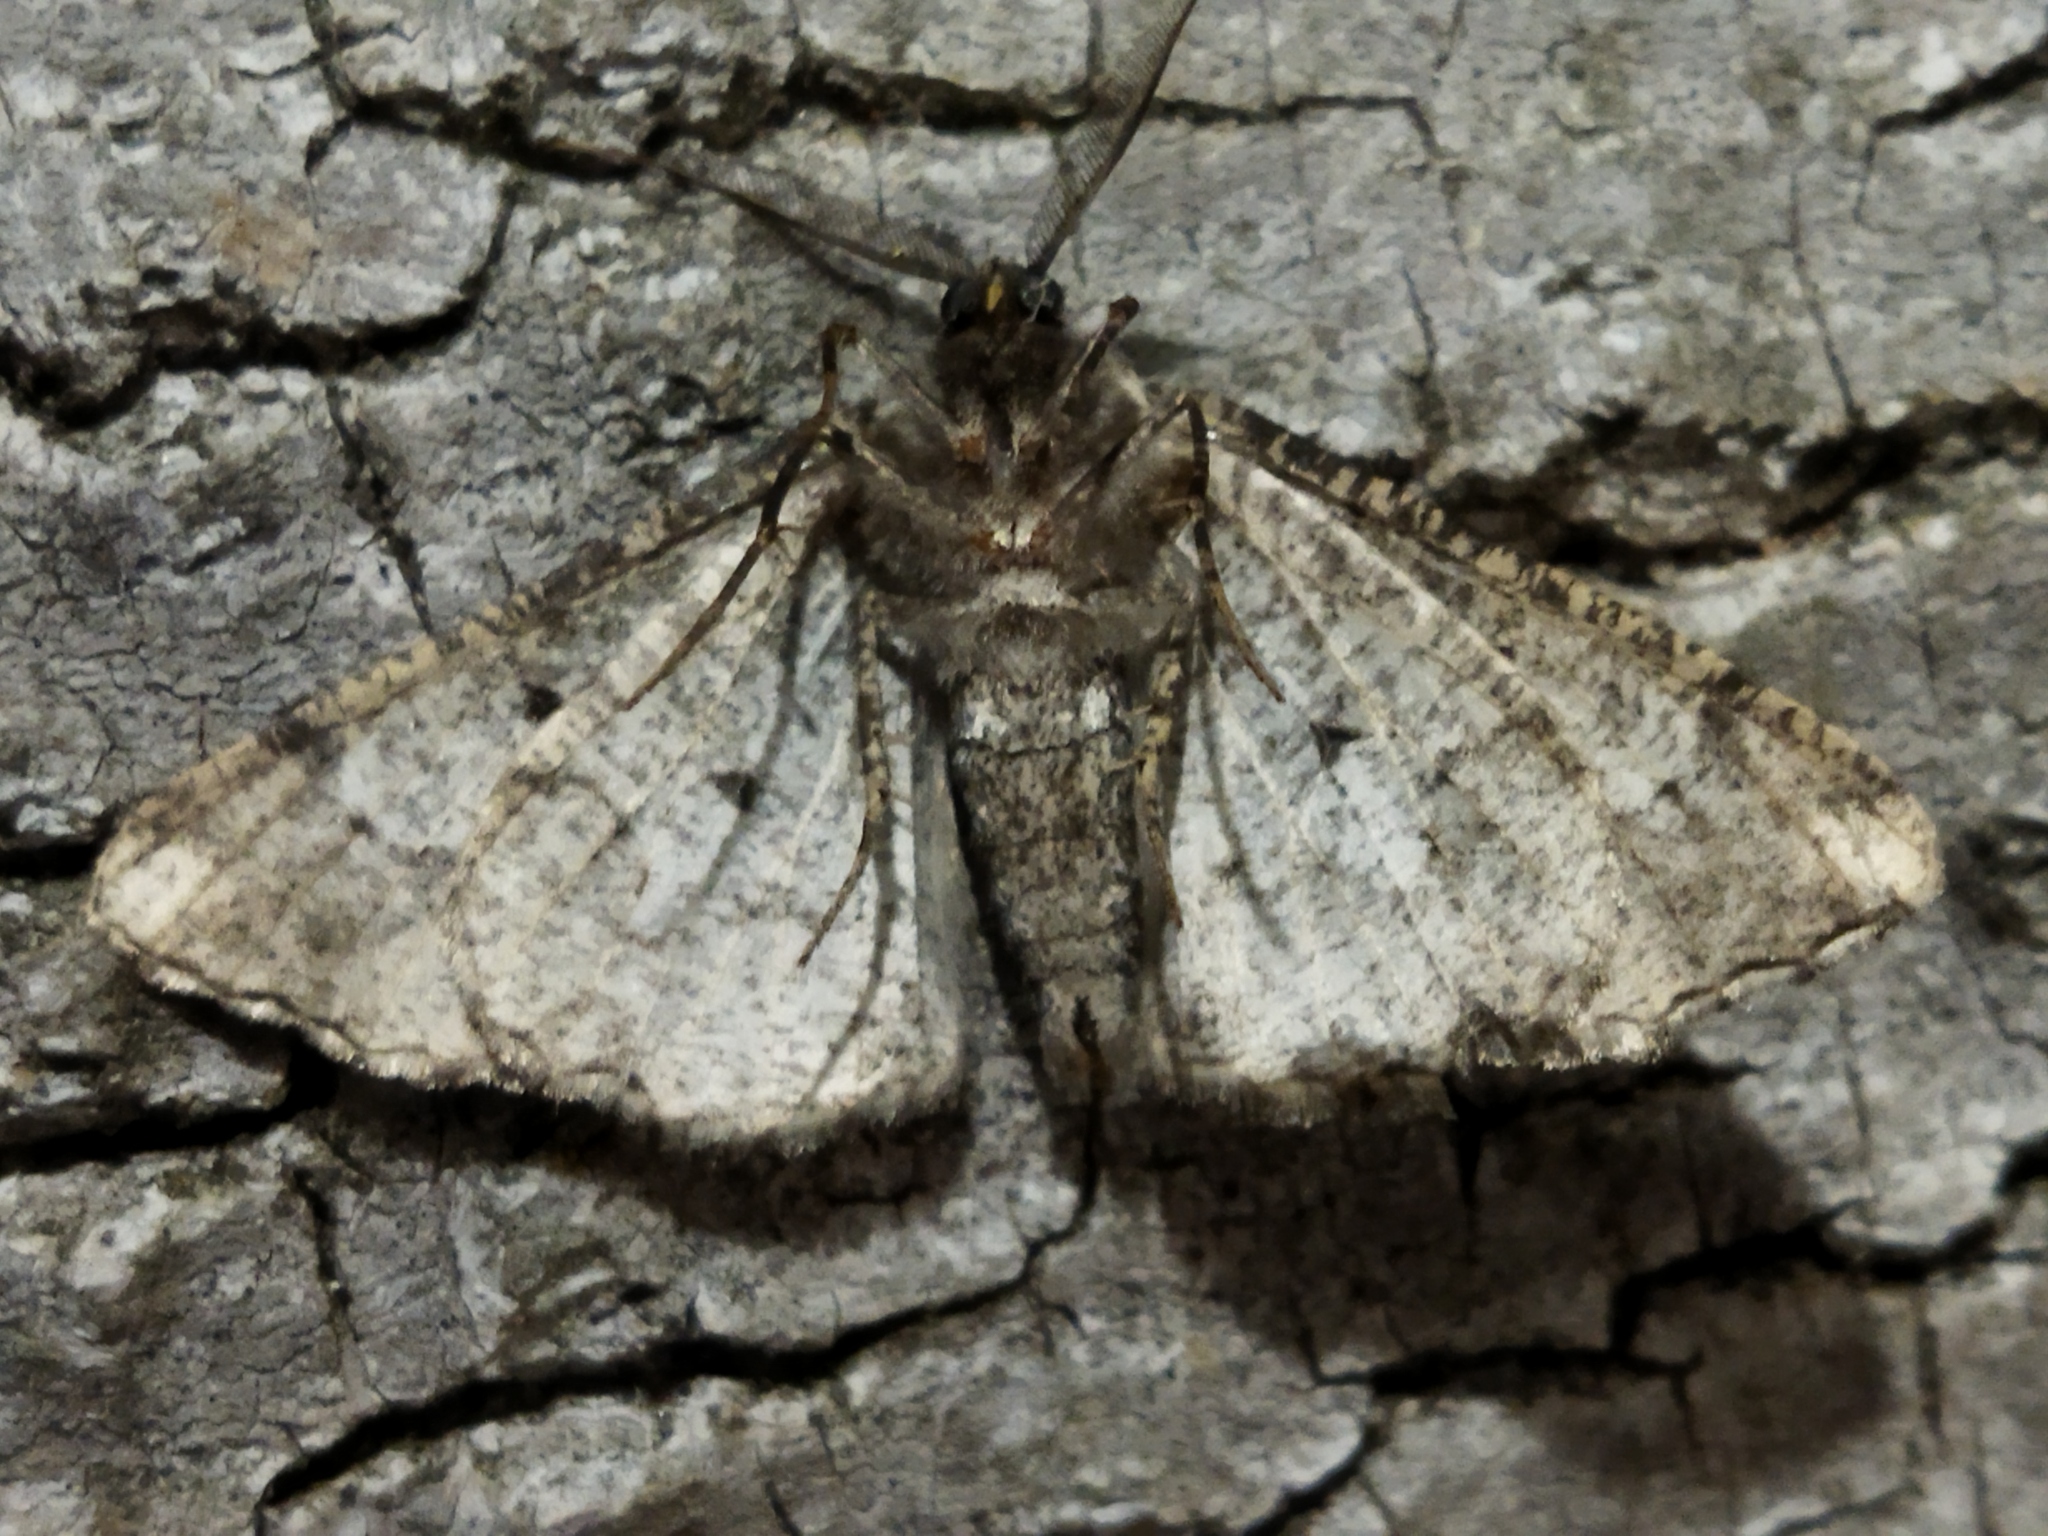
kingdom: Animalia
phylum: Arthropoda
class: Insecta
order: Lepidoptera
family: Geometridae
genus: Synopsia
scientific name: Synopsia sociaria
